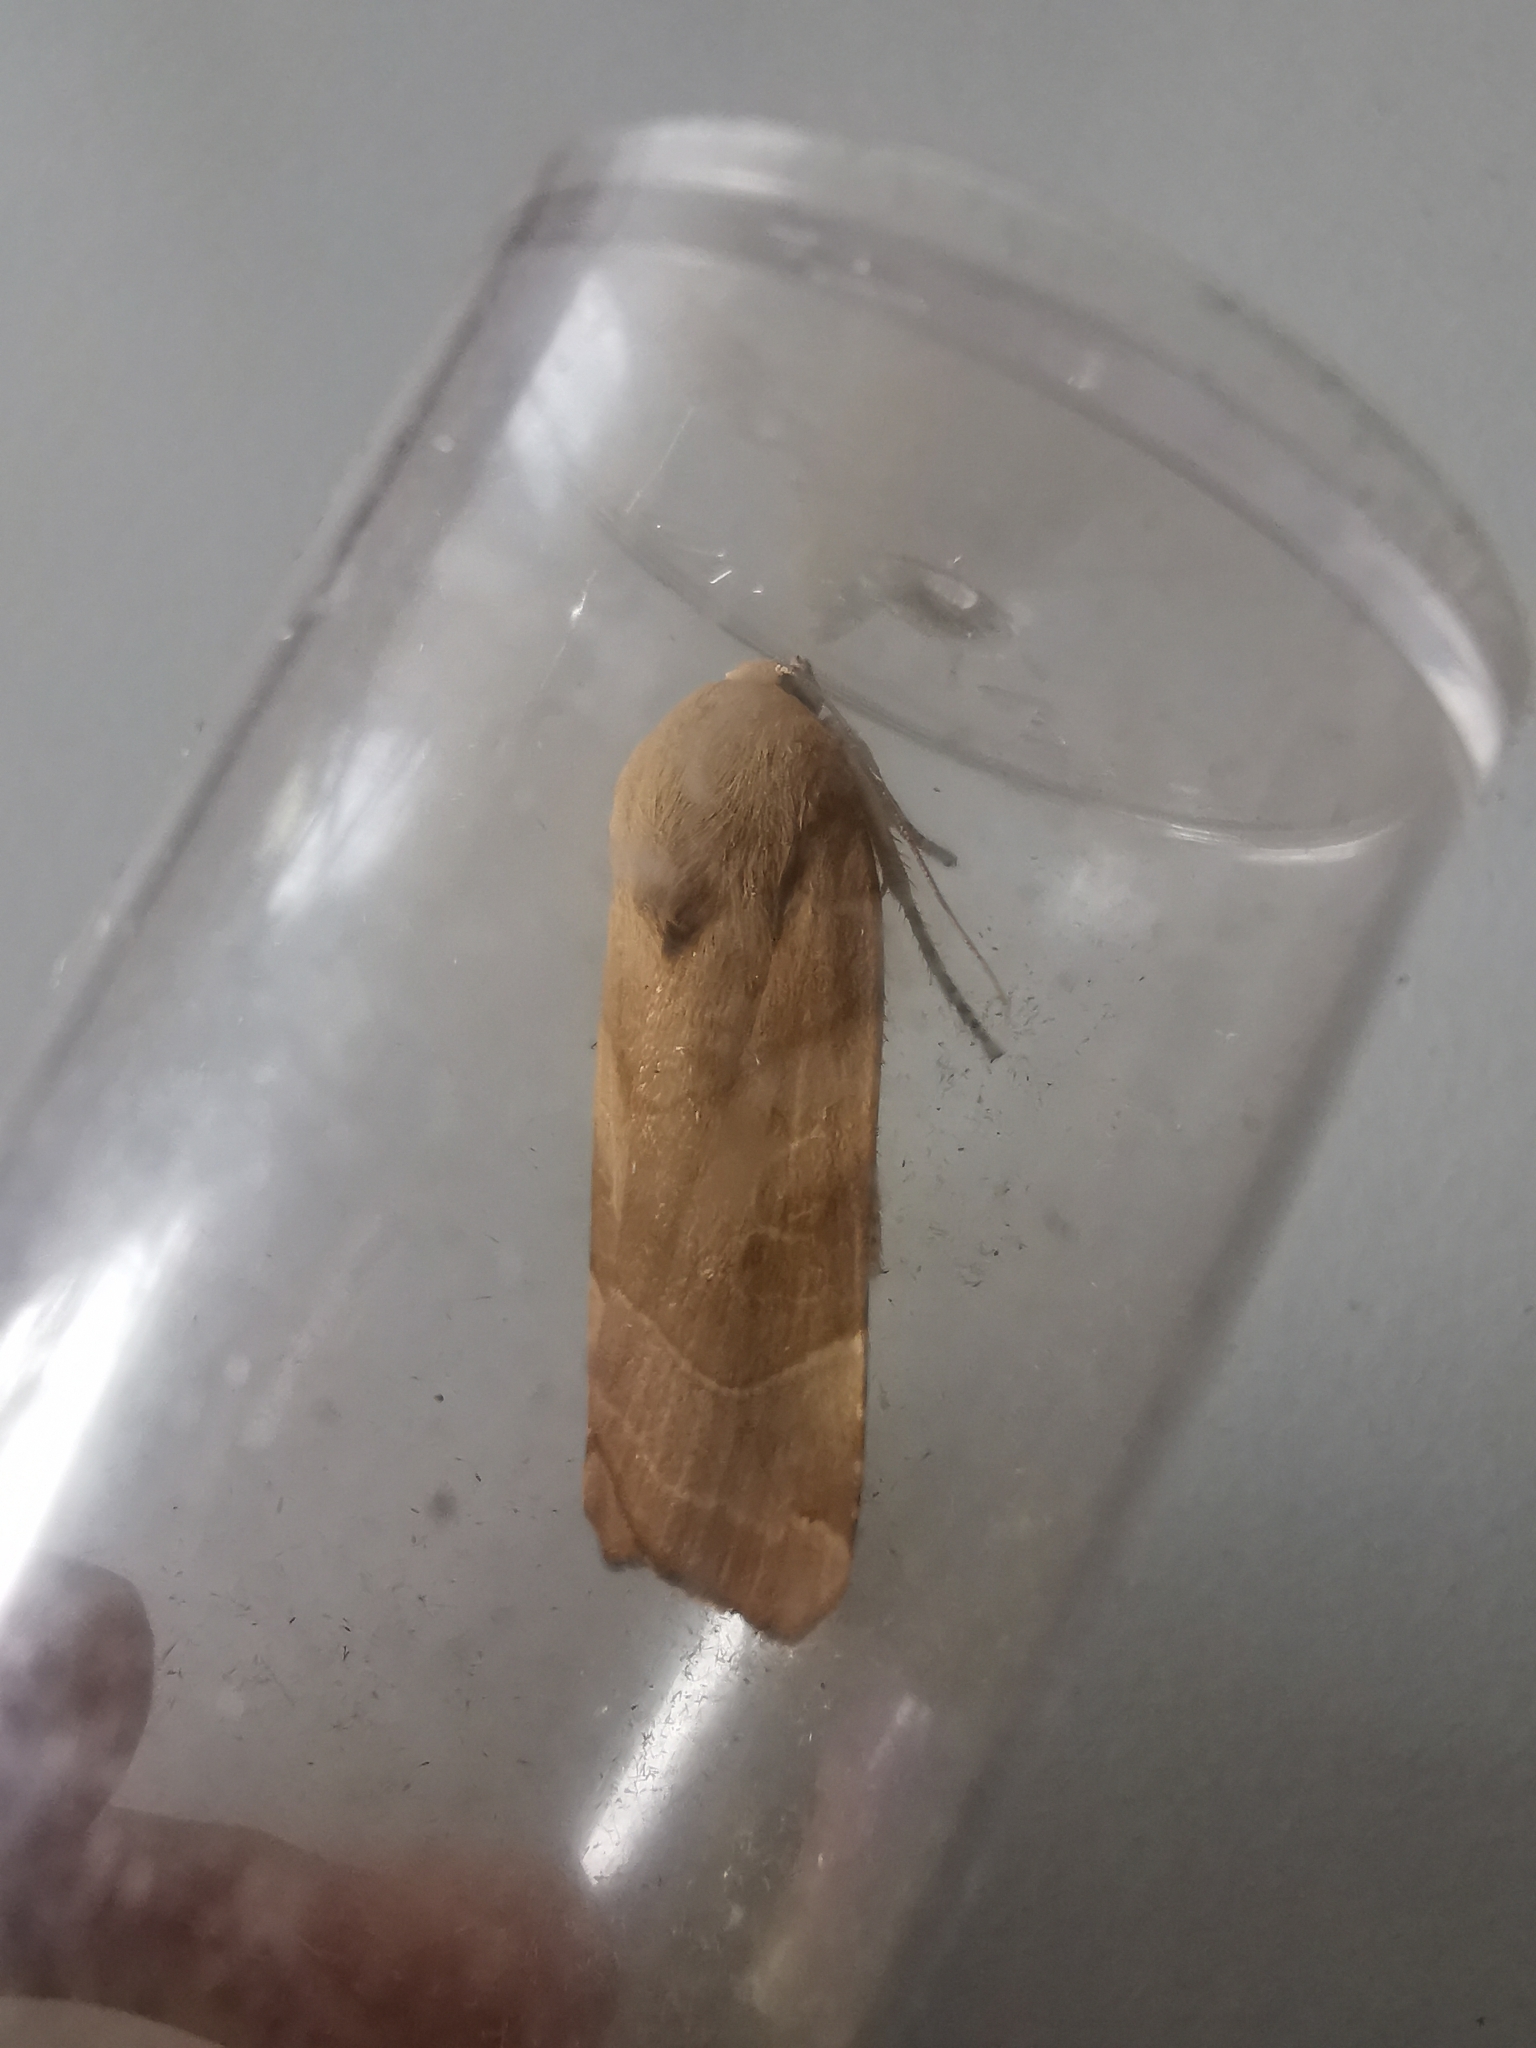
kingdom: Animalia
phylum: Arthropoda
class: Insecta
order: Lepidoptera
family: Noctuidae
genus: Noctua
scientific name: Noctua fimbriata
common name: Broad-bordered yellow underwing
